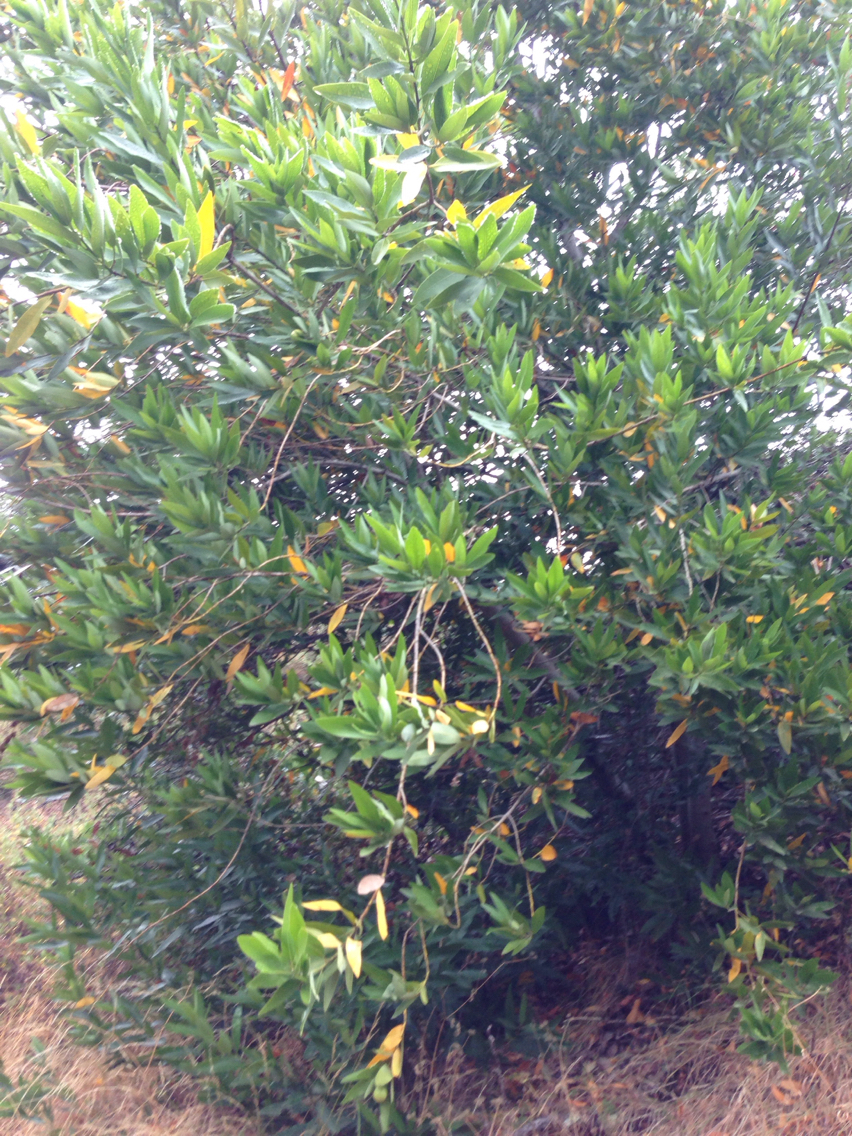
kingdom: Plantae
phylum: Tracheophyta
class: Magnoliopsida
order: Laurales
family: Lauraceae
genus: Umbellularia
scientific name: Umbellularia californica
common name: California bay
